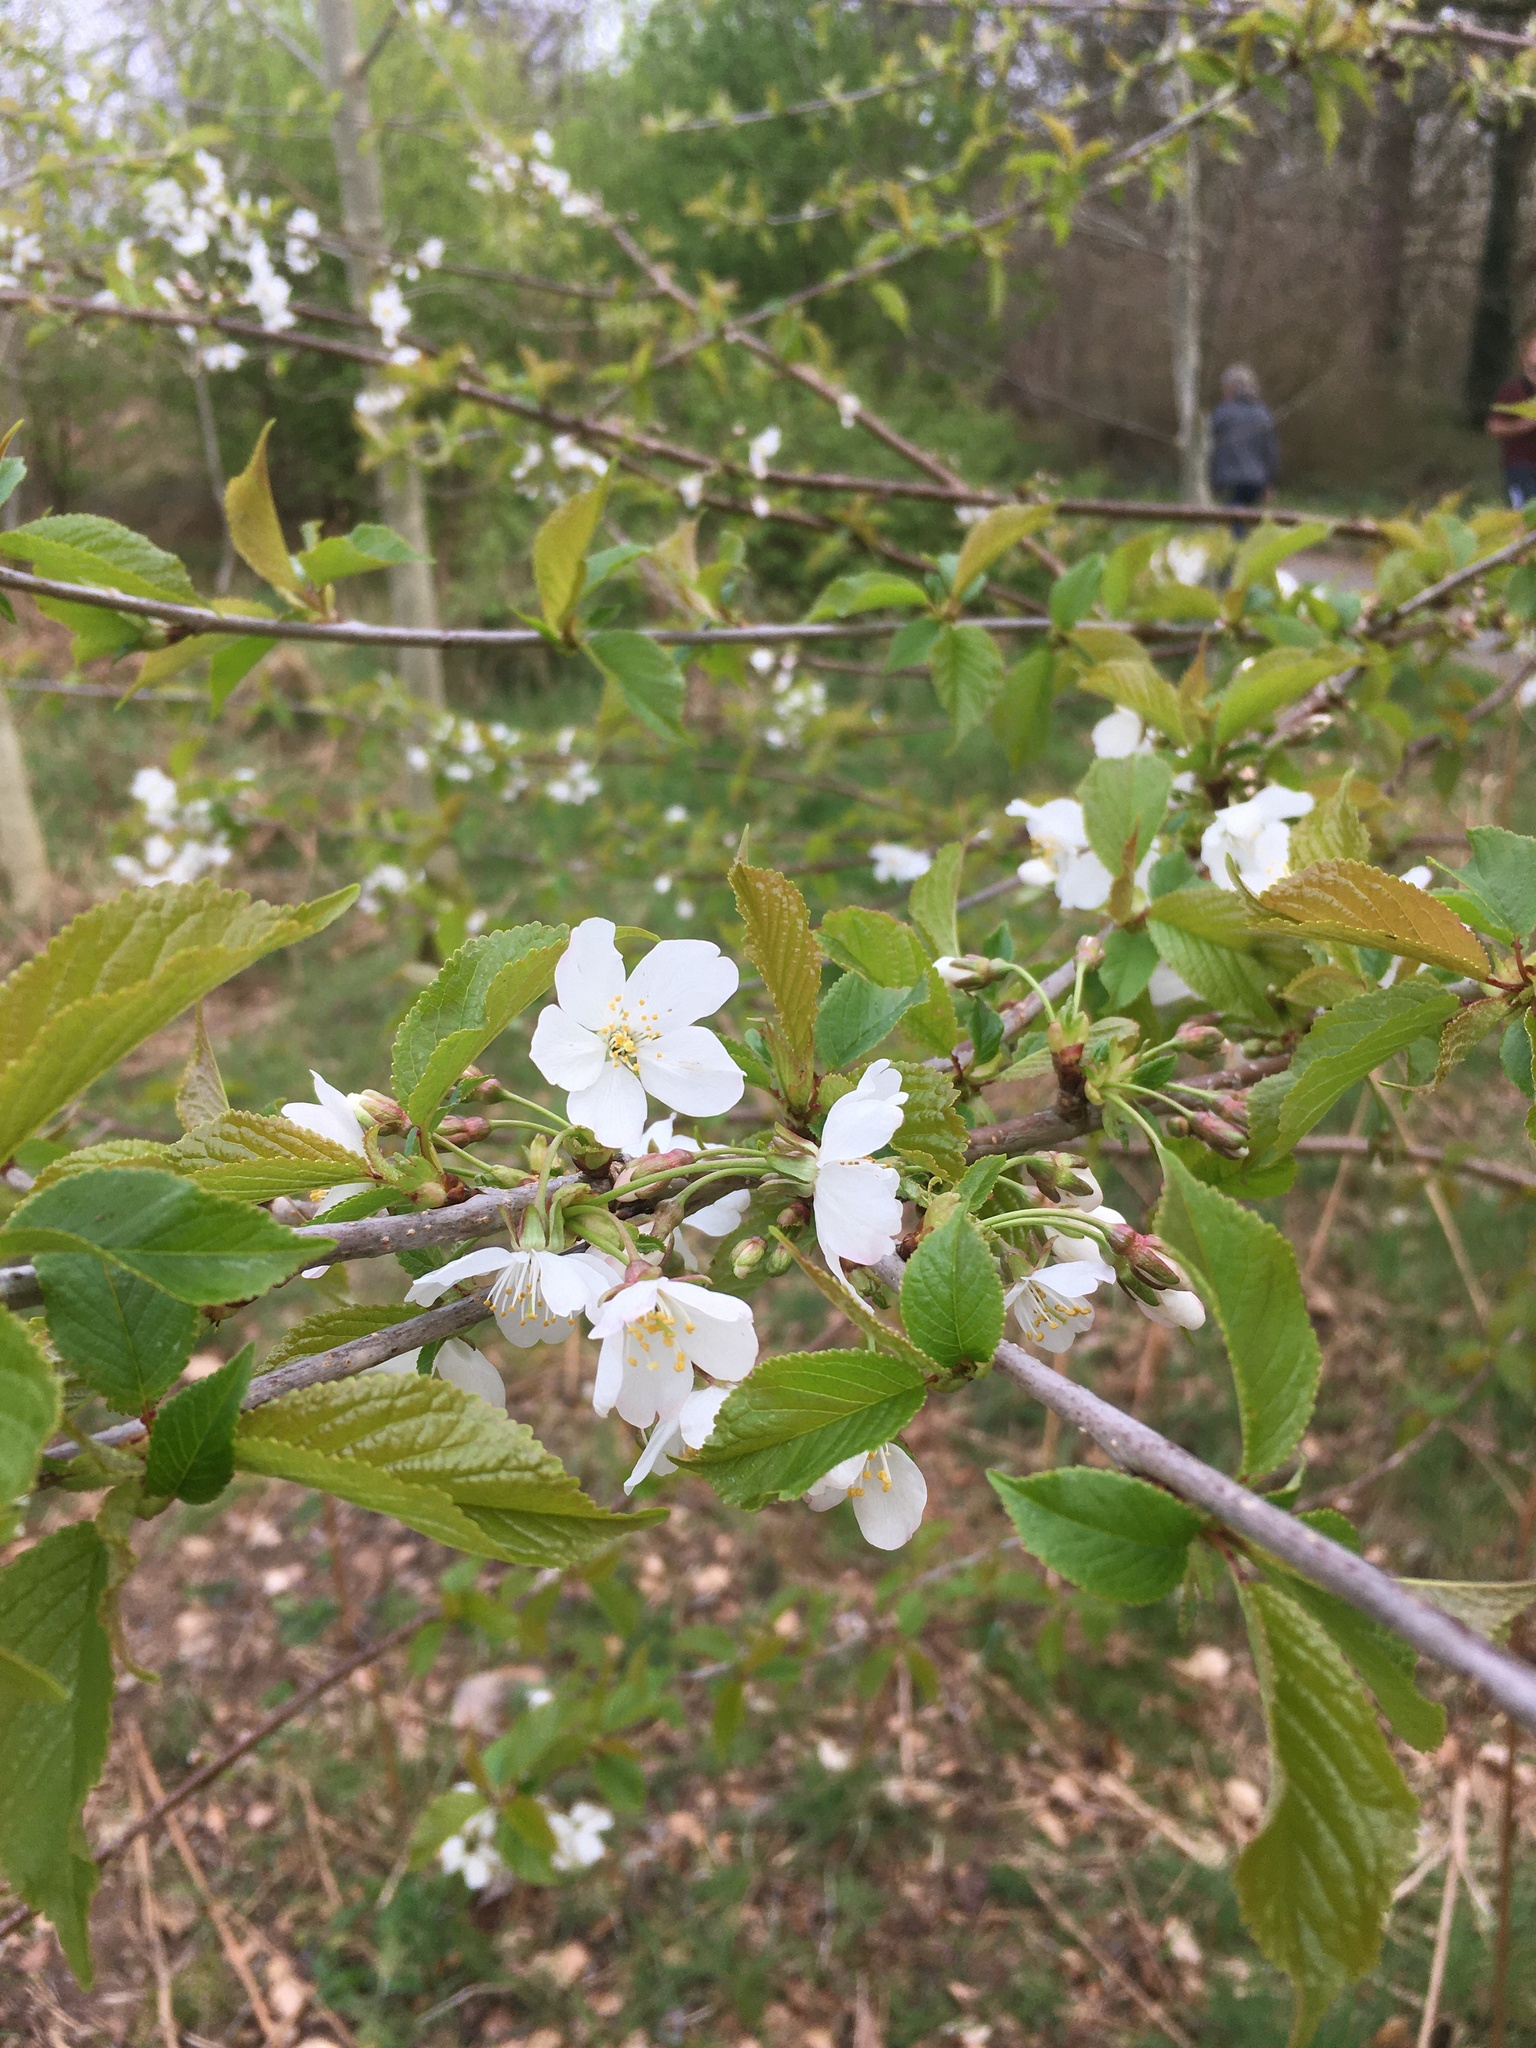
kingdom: Plantae
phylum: Tracheophyta
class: Magnoliopsida
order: Rosales
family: Rosaceae
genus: Prunus
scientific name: Prunus avium
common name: Sweet cherry
